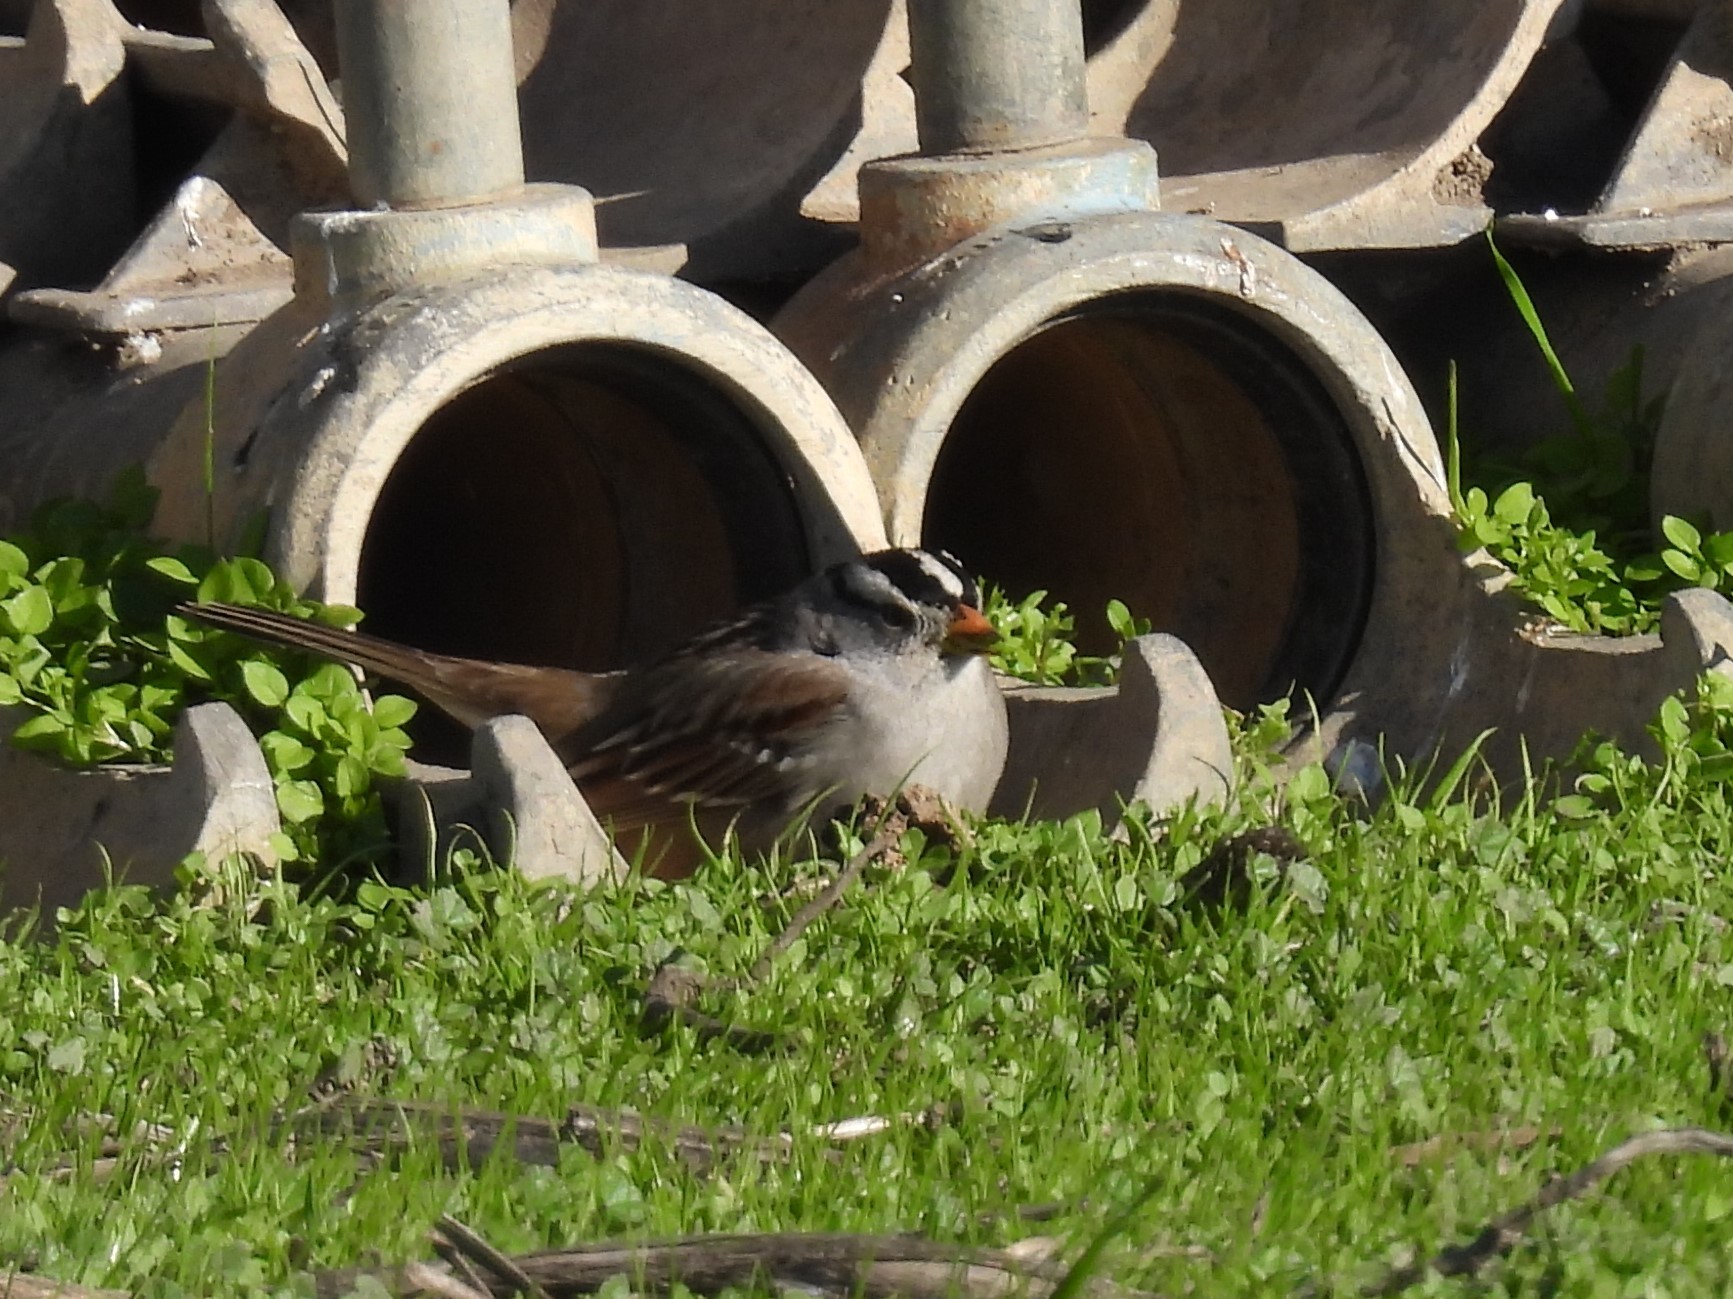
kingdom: Animalia
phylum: Chordata
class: Aves
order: Passeriformes
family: Passerellidae
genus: Zonotrichia
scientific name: Zonotrichia leucophrys
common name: White-crowned sparrow
